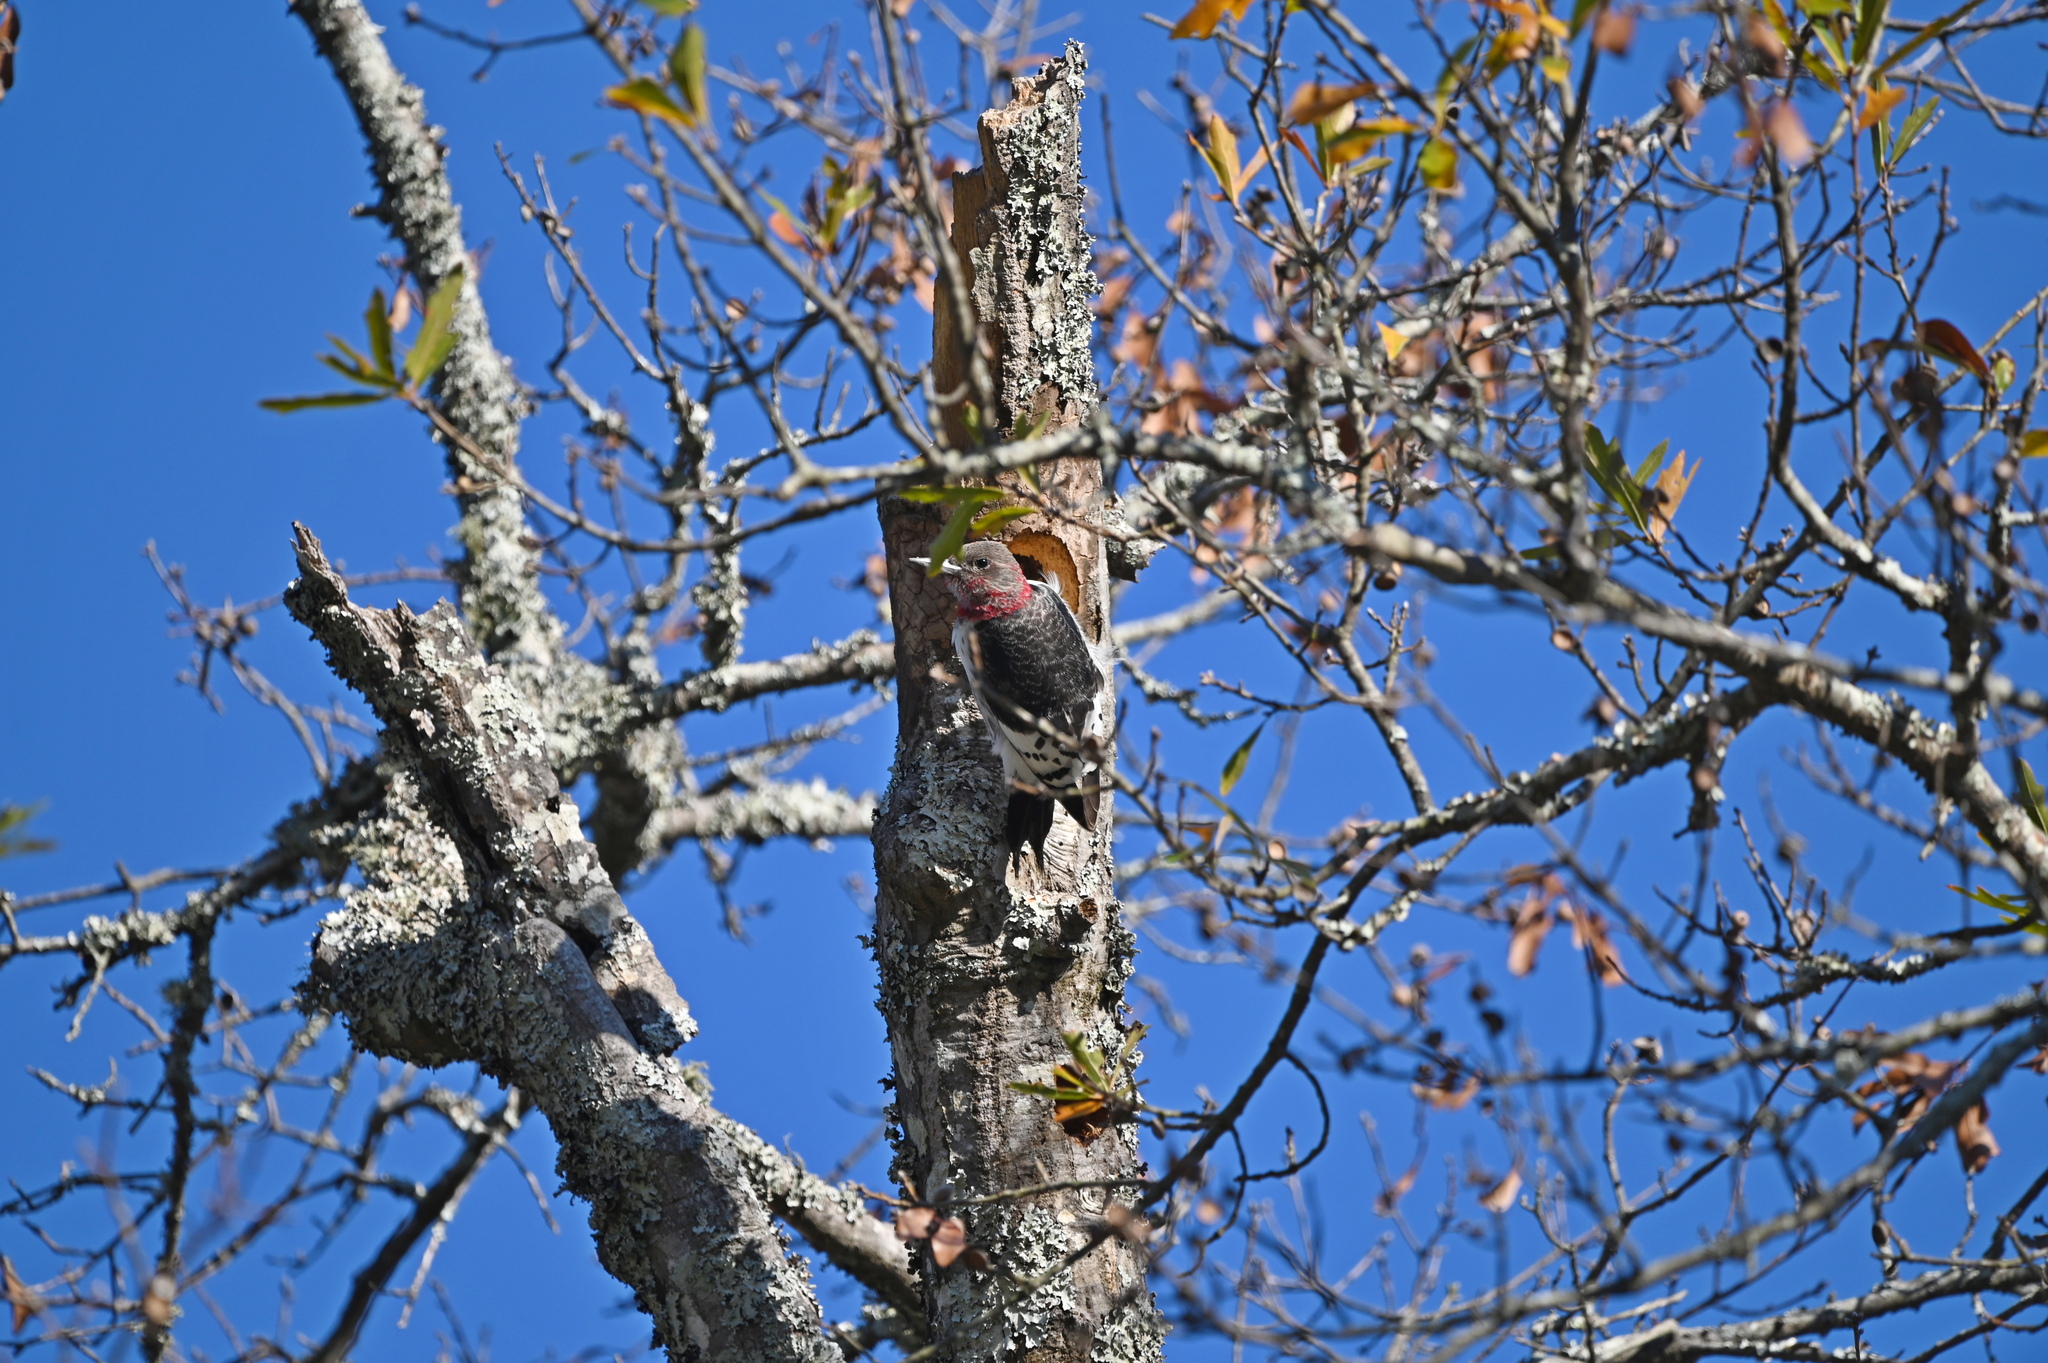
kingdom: Animalia
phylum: Chordata
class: Aves
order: Piciformes
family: Picidae
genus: Melanerpes
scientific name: Melanerpes erythrocephalus
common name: Red-headed woodpecker
